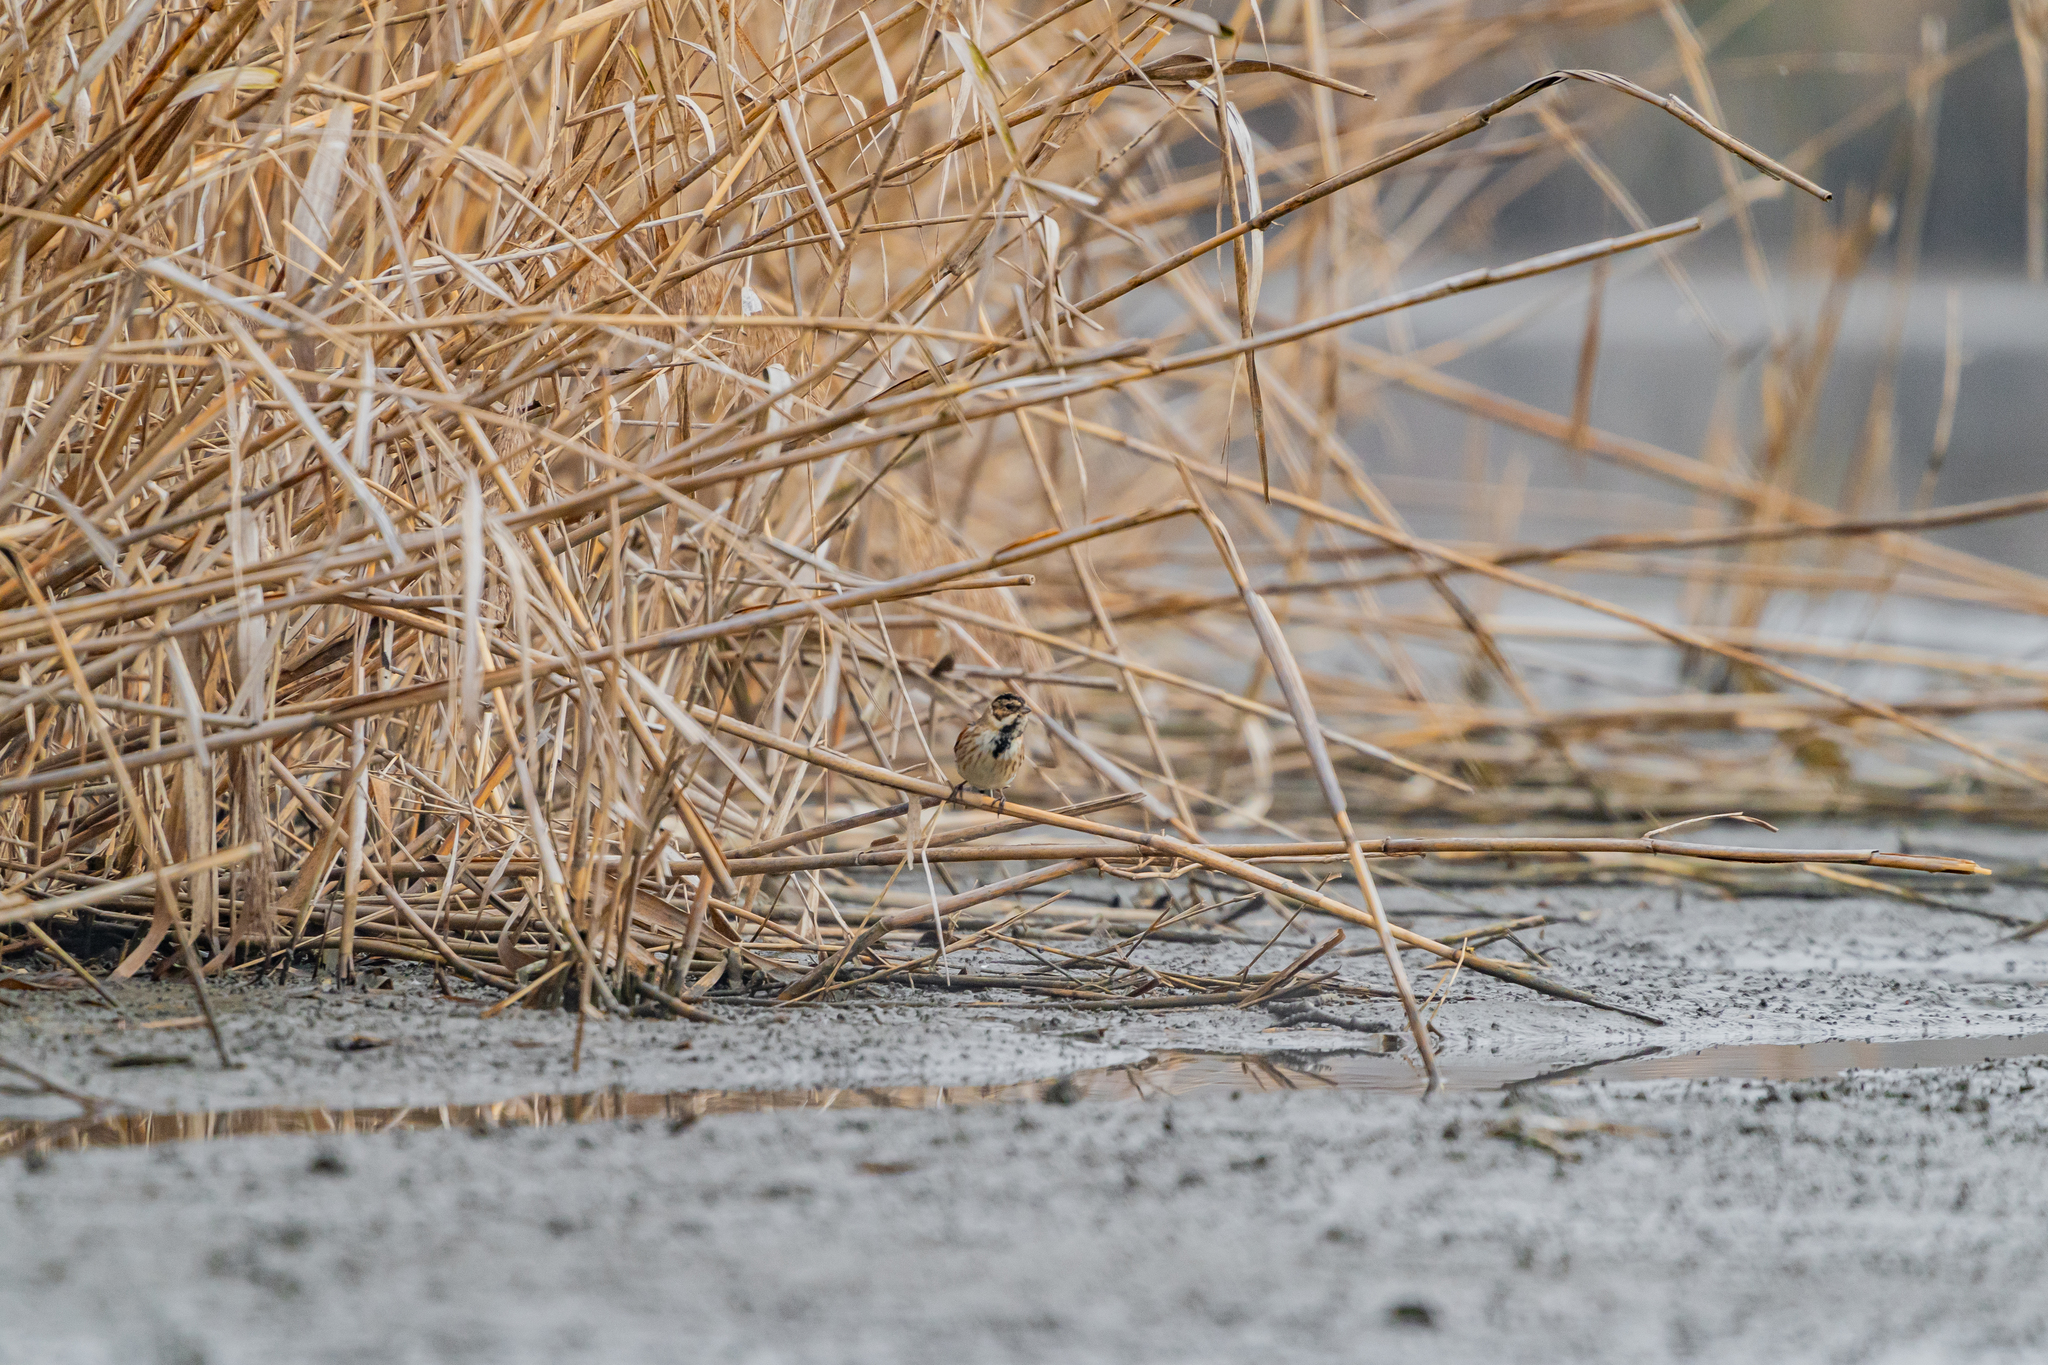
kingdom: Animalia
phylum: Chordata
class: Aves
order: Passeriformes
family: Emberizidae
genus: Emberiza
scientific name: Emberiza schoeniclus
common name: Reed bunting
